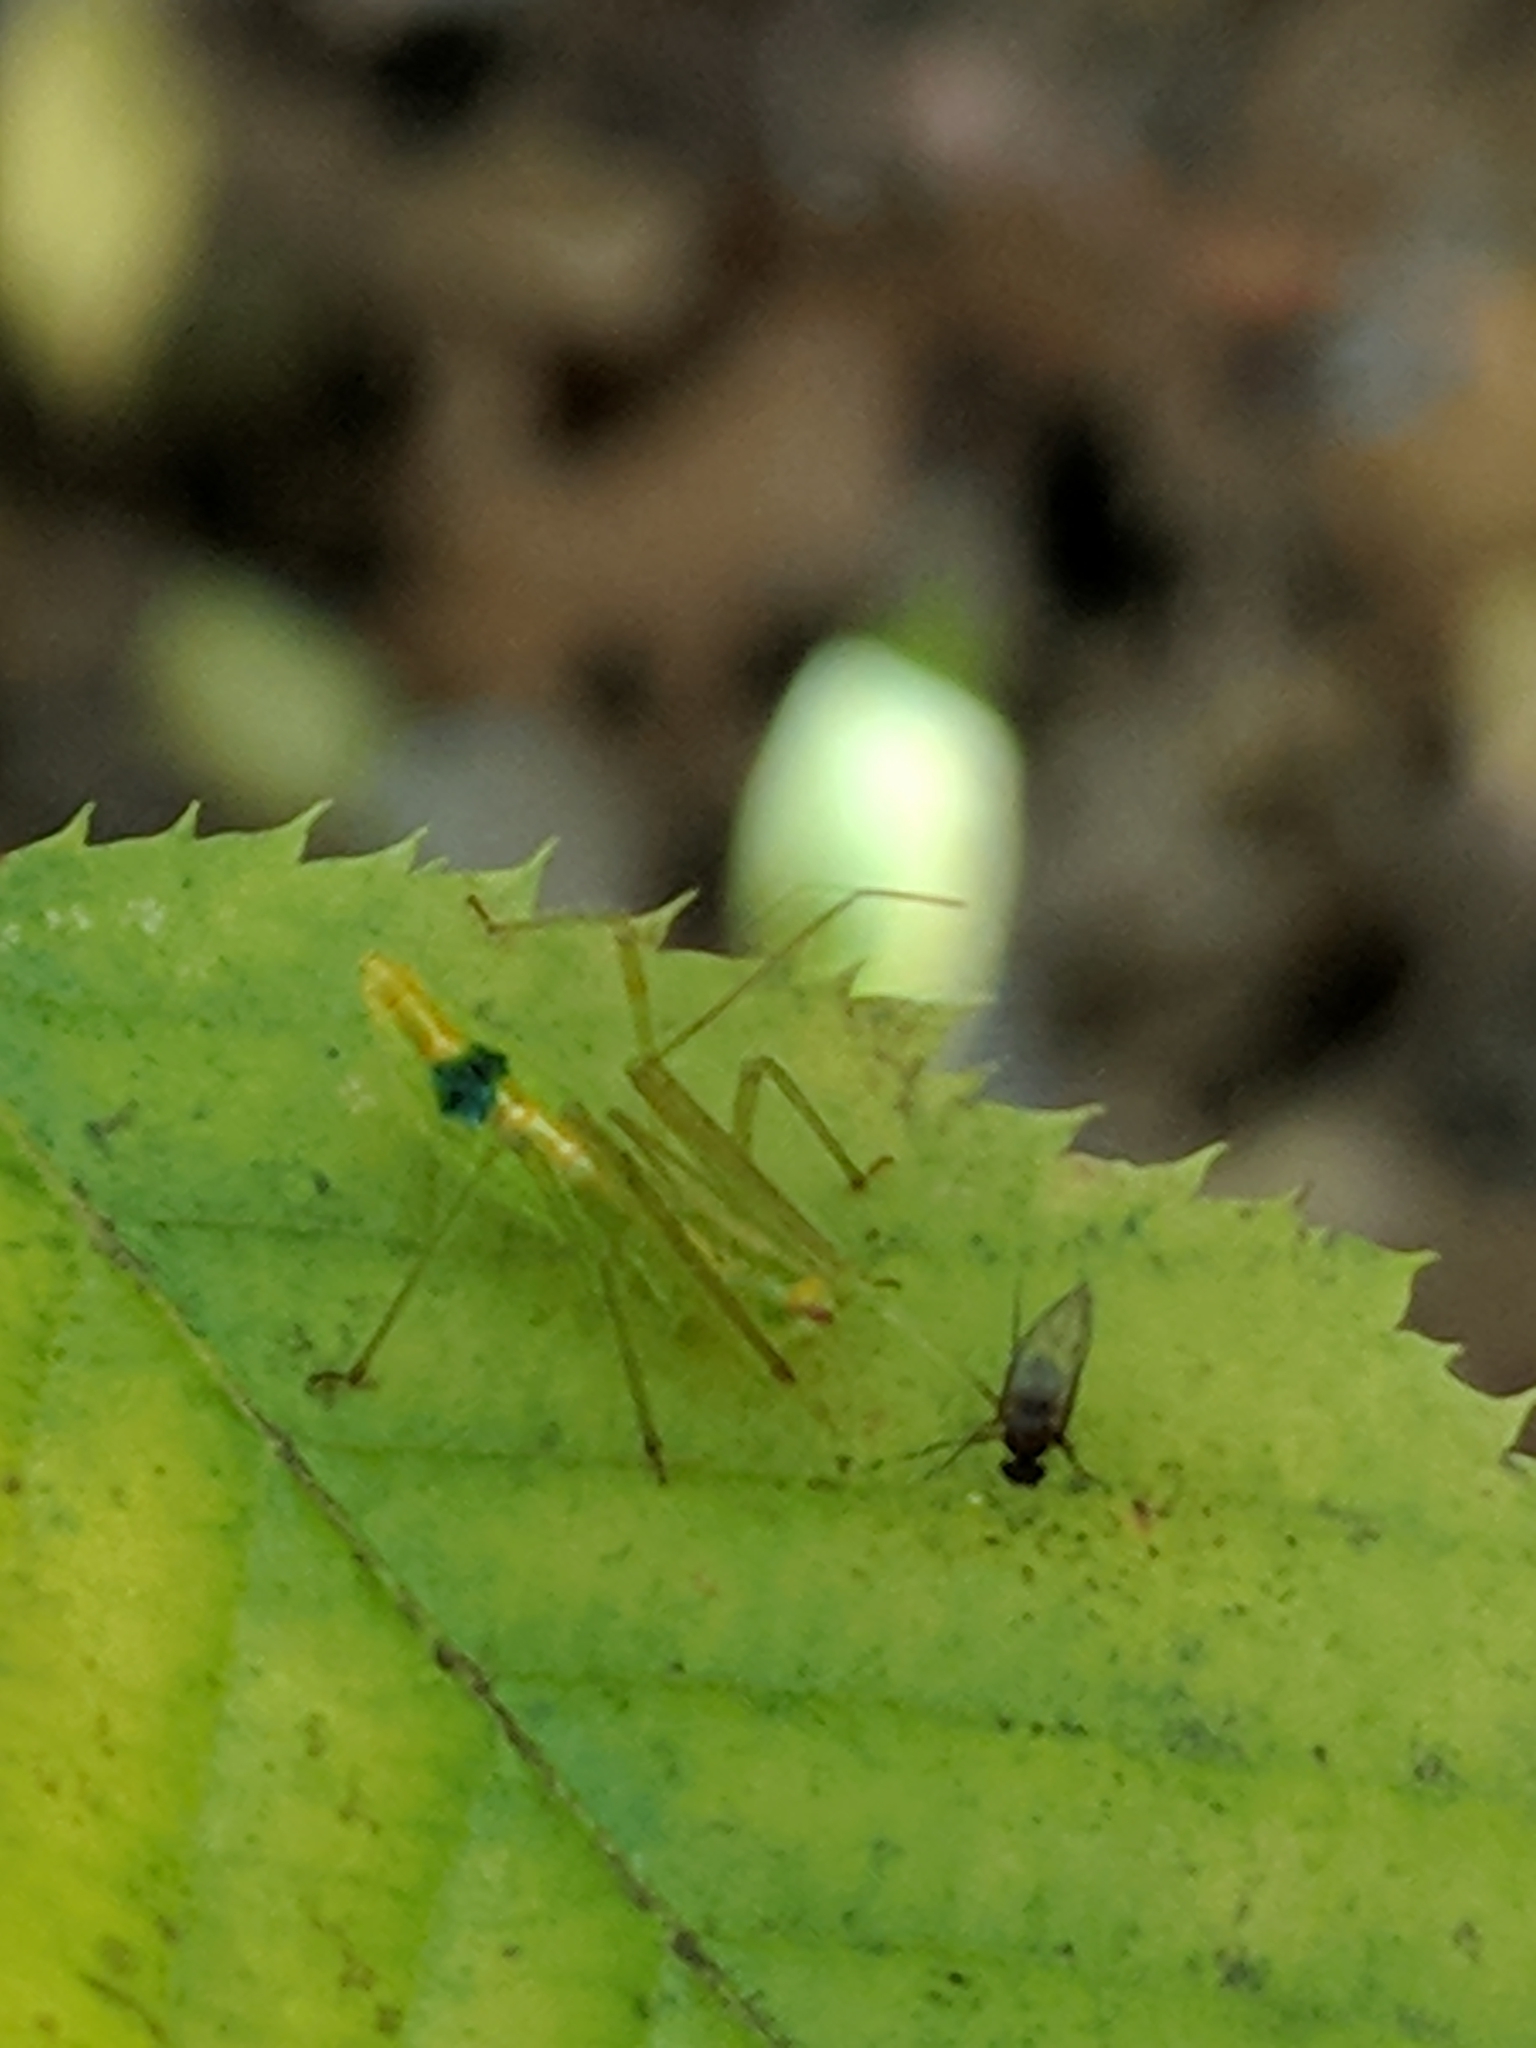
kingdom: Animalia
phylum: Arthropoda
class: Insecta
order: Hemiptera
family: Reduviidae
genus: Zelus
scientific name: Zelus luridus
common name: Pale green assassin bug
